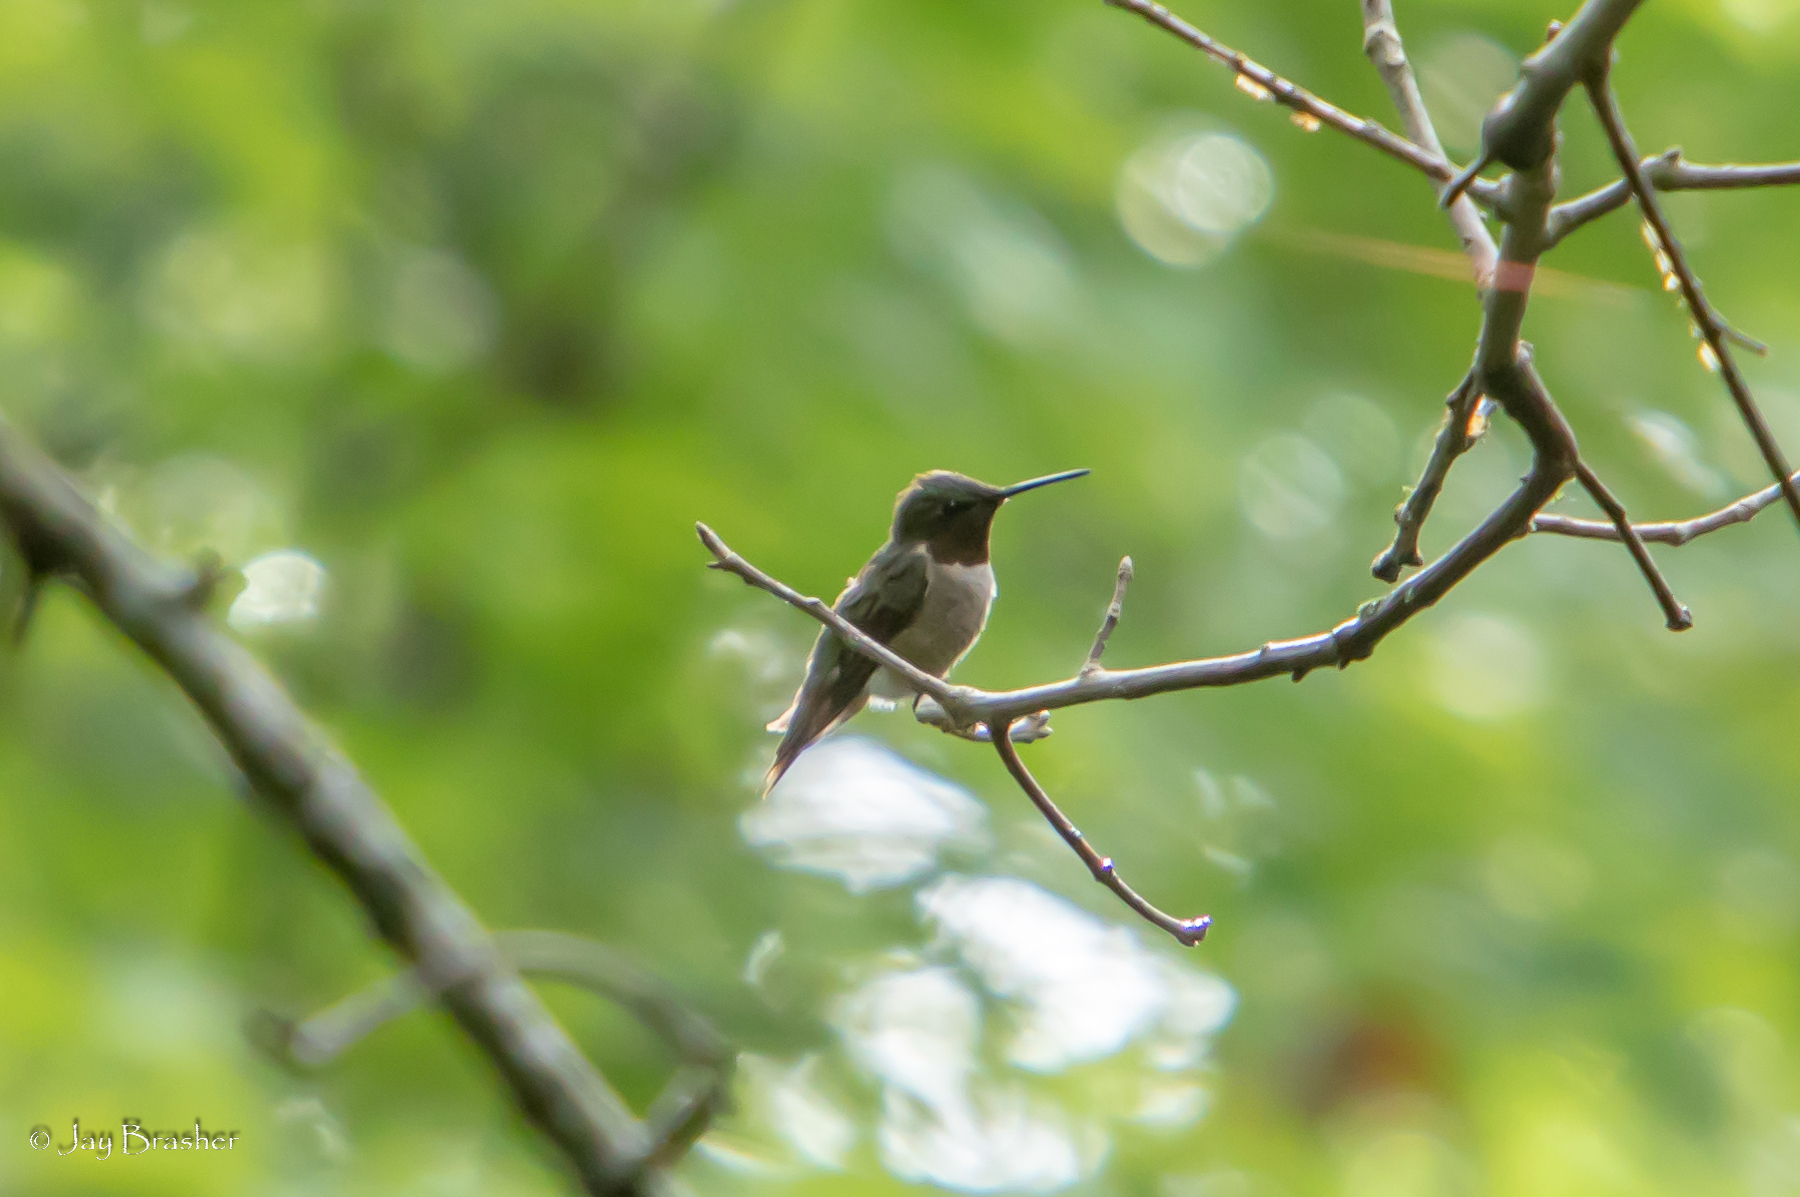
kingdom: Animalia
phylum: Chordata
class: Aves
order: Apodiformes
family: Trochilidae
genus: Archilochus
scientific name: Archilochus colubris
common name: Ruby-throated hummingbird
